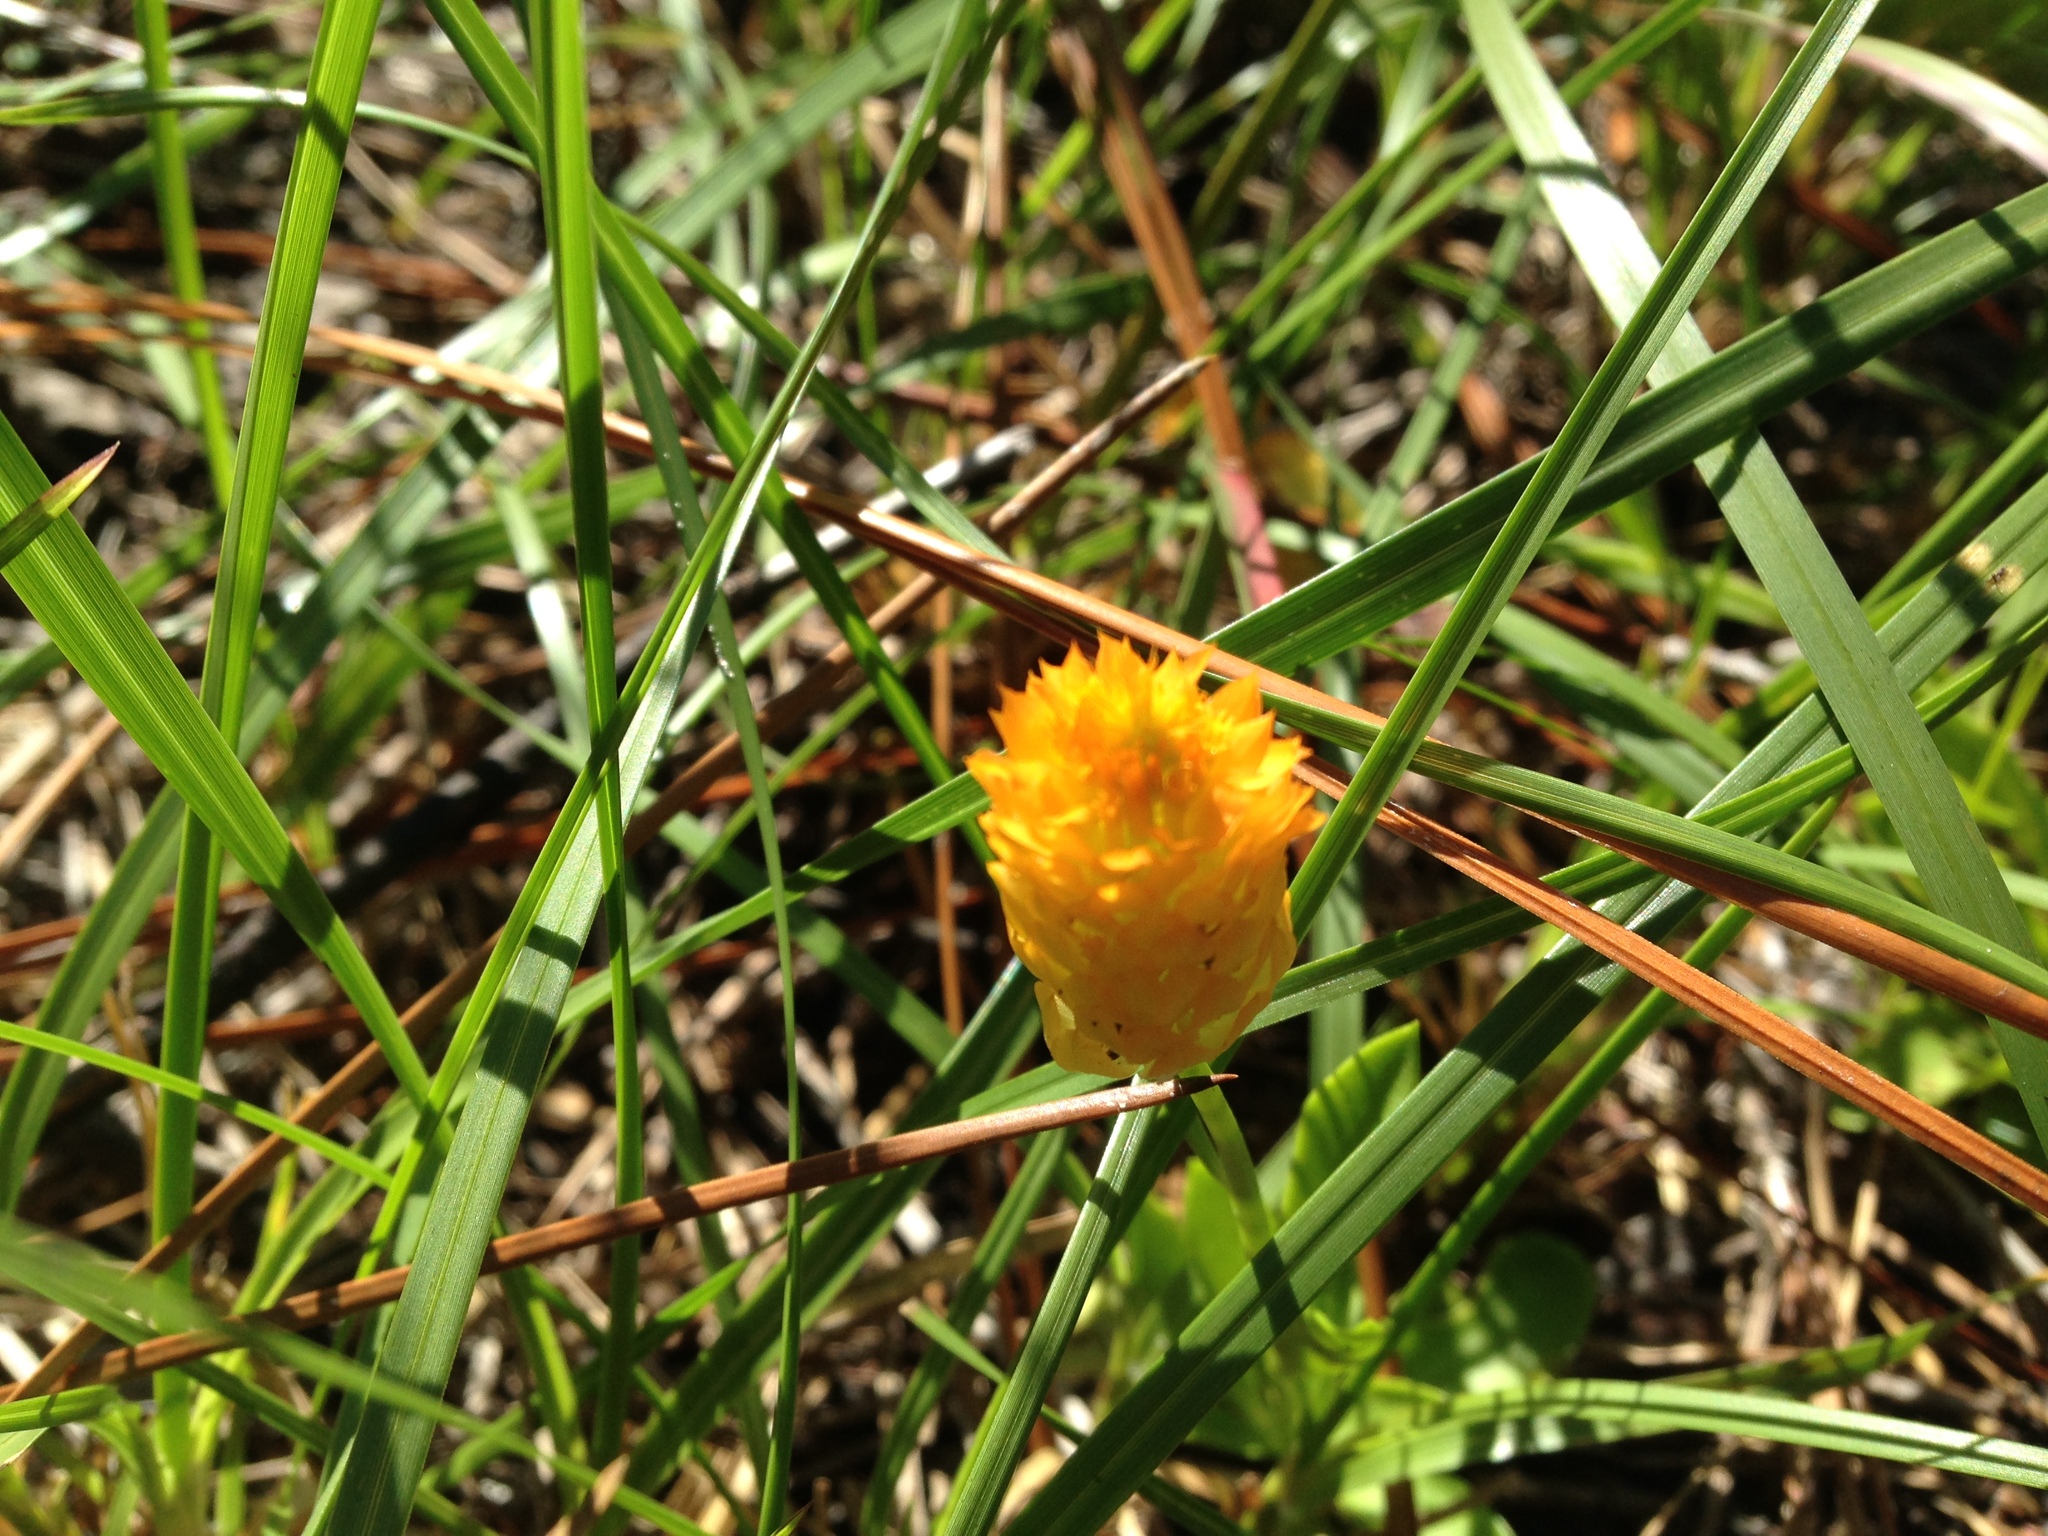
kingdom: Plantae
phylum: Tracheophyta
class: Magnoliopsida
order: Fabales
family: Polygalaceae
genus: Polygala
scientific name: Polygala lutea
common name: Orange milkwort
